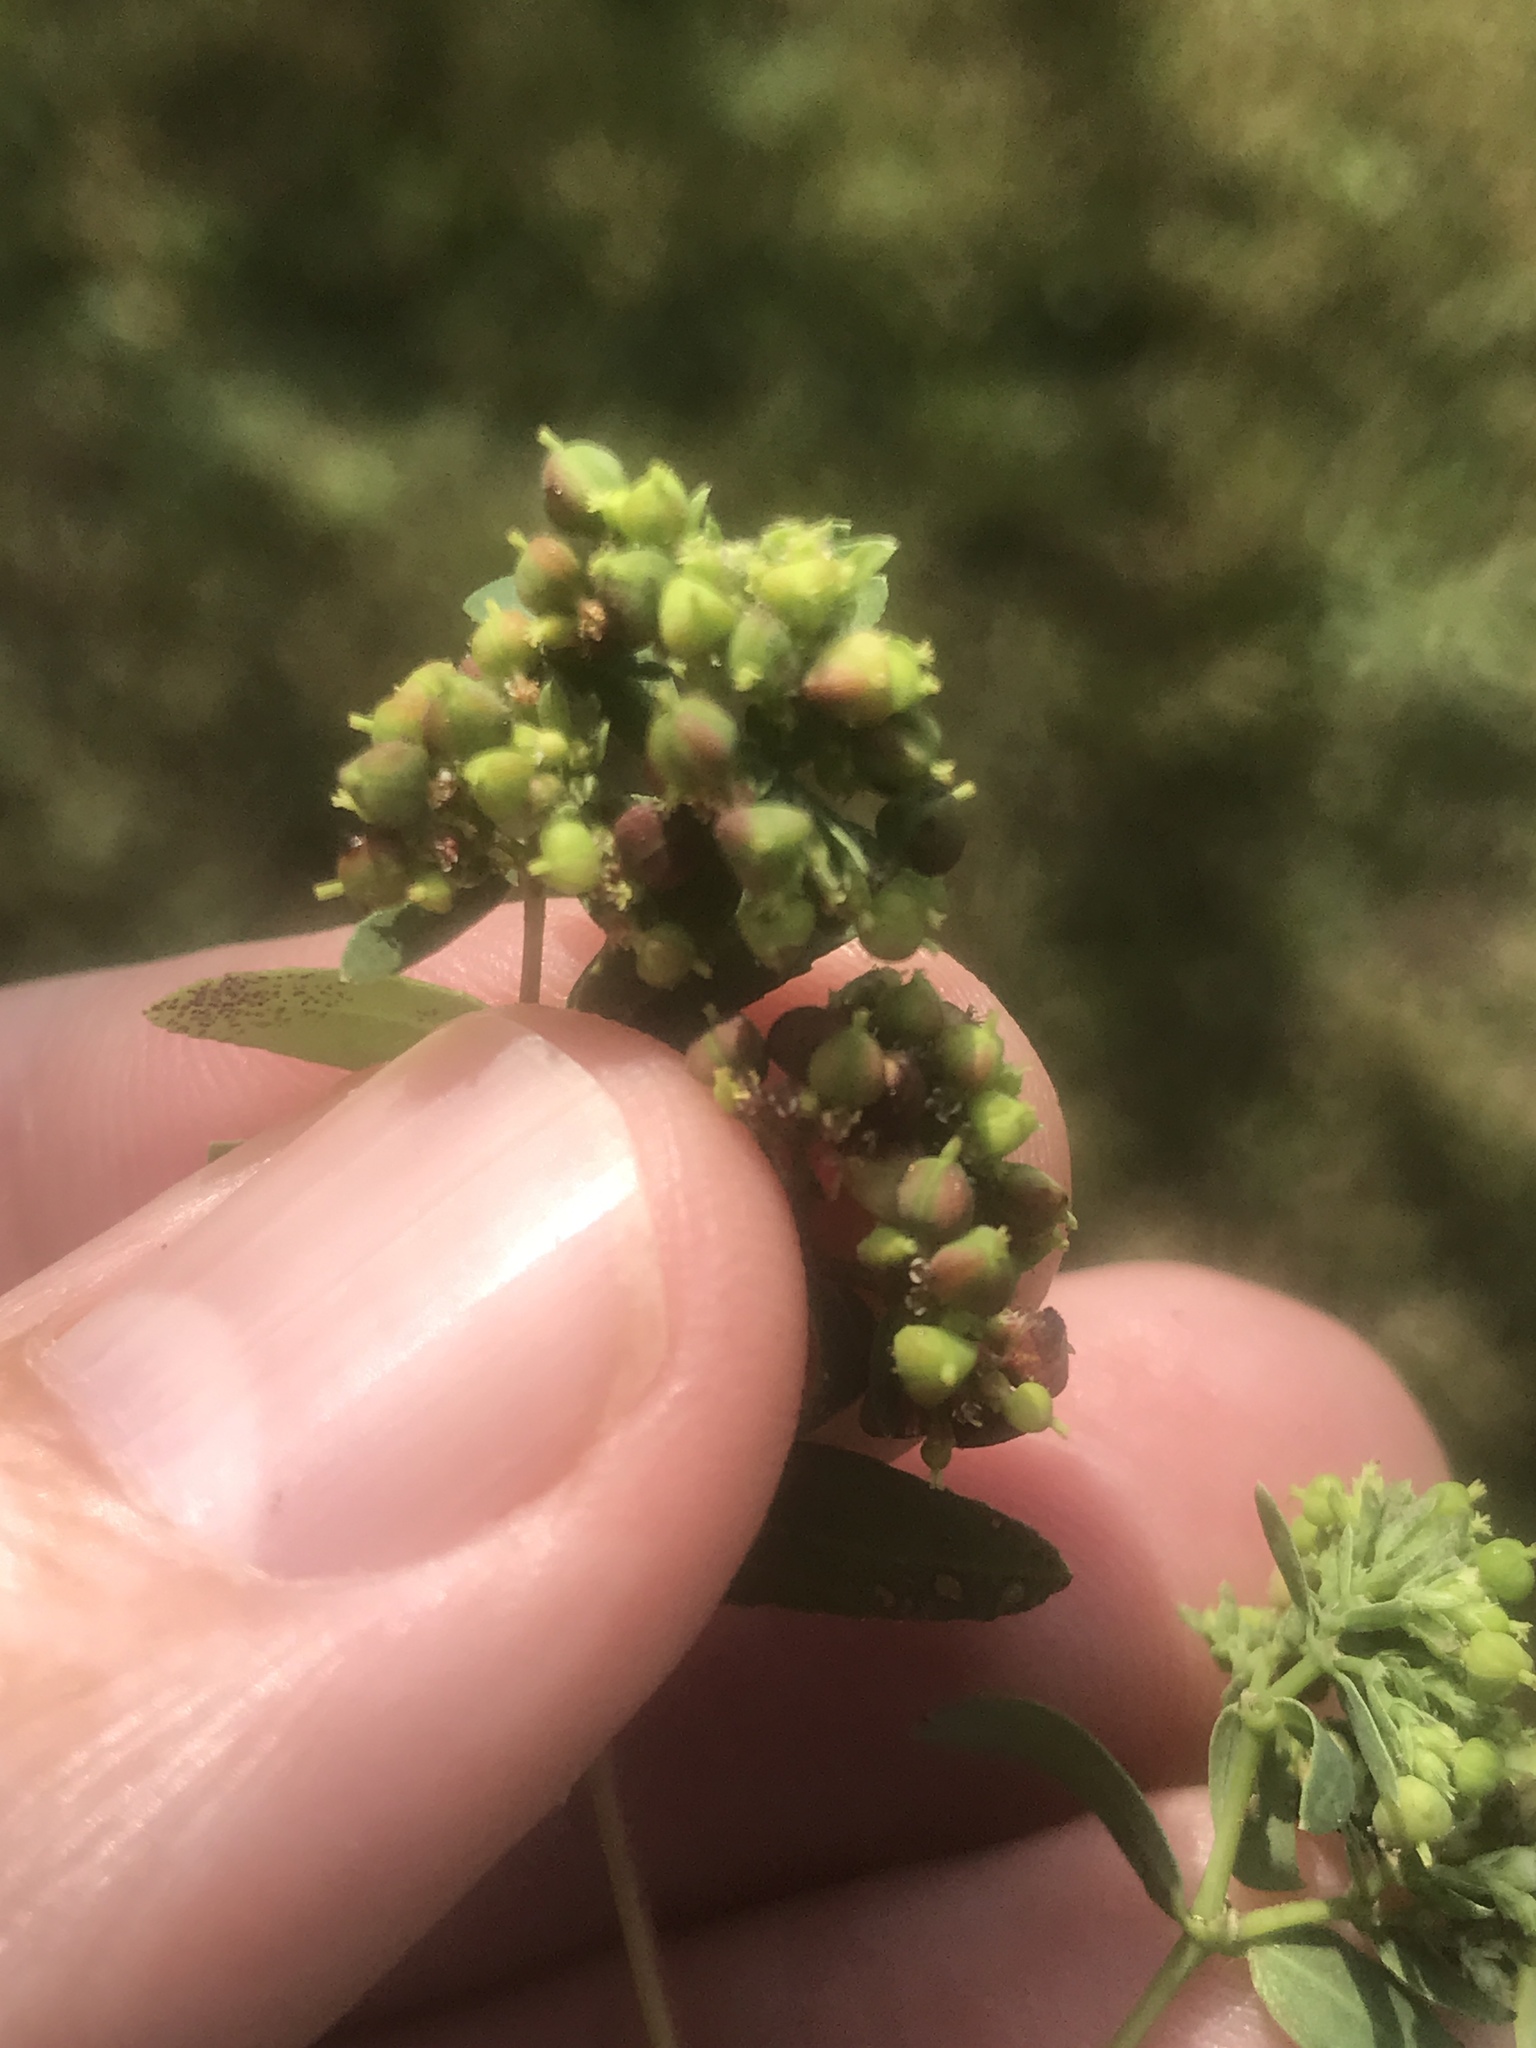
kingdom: Plantae
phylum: Tracheophyta
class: Magnoliopsida
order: Malpighiales
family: Euphorbiaceae
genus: Euphorbia
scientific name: Euphorbia nutans
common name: Eyebane
